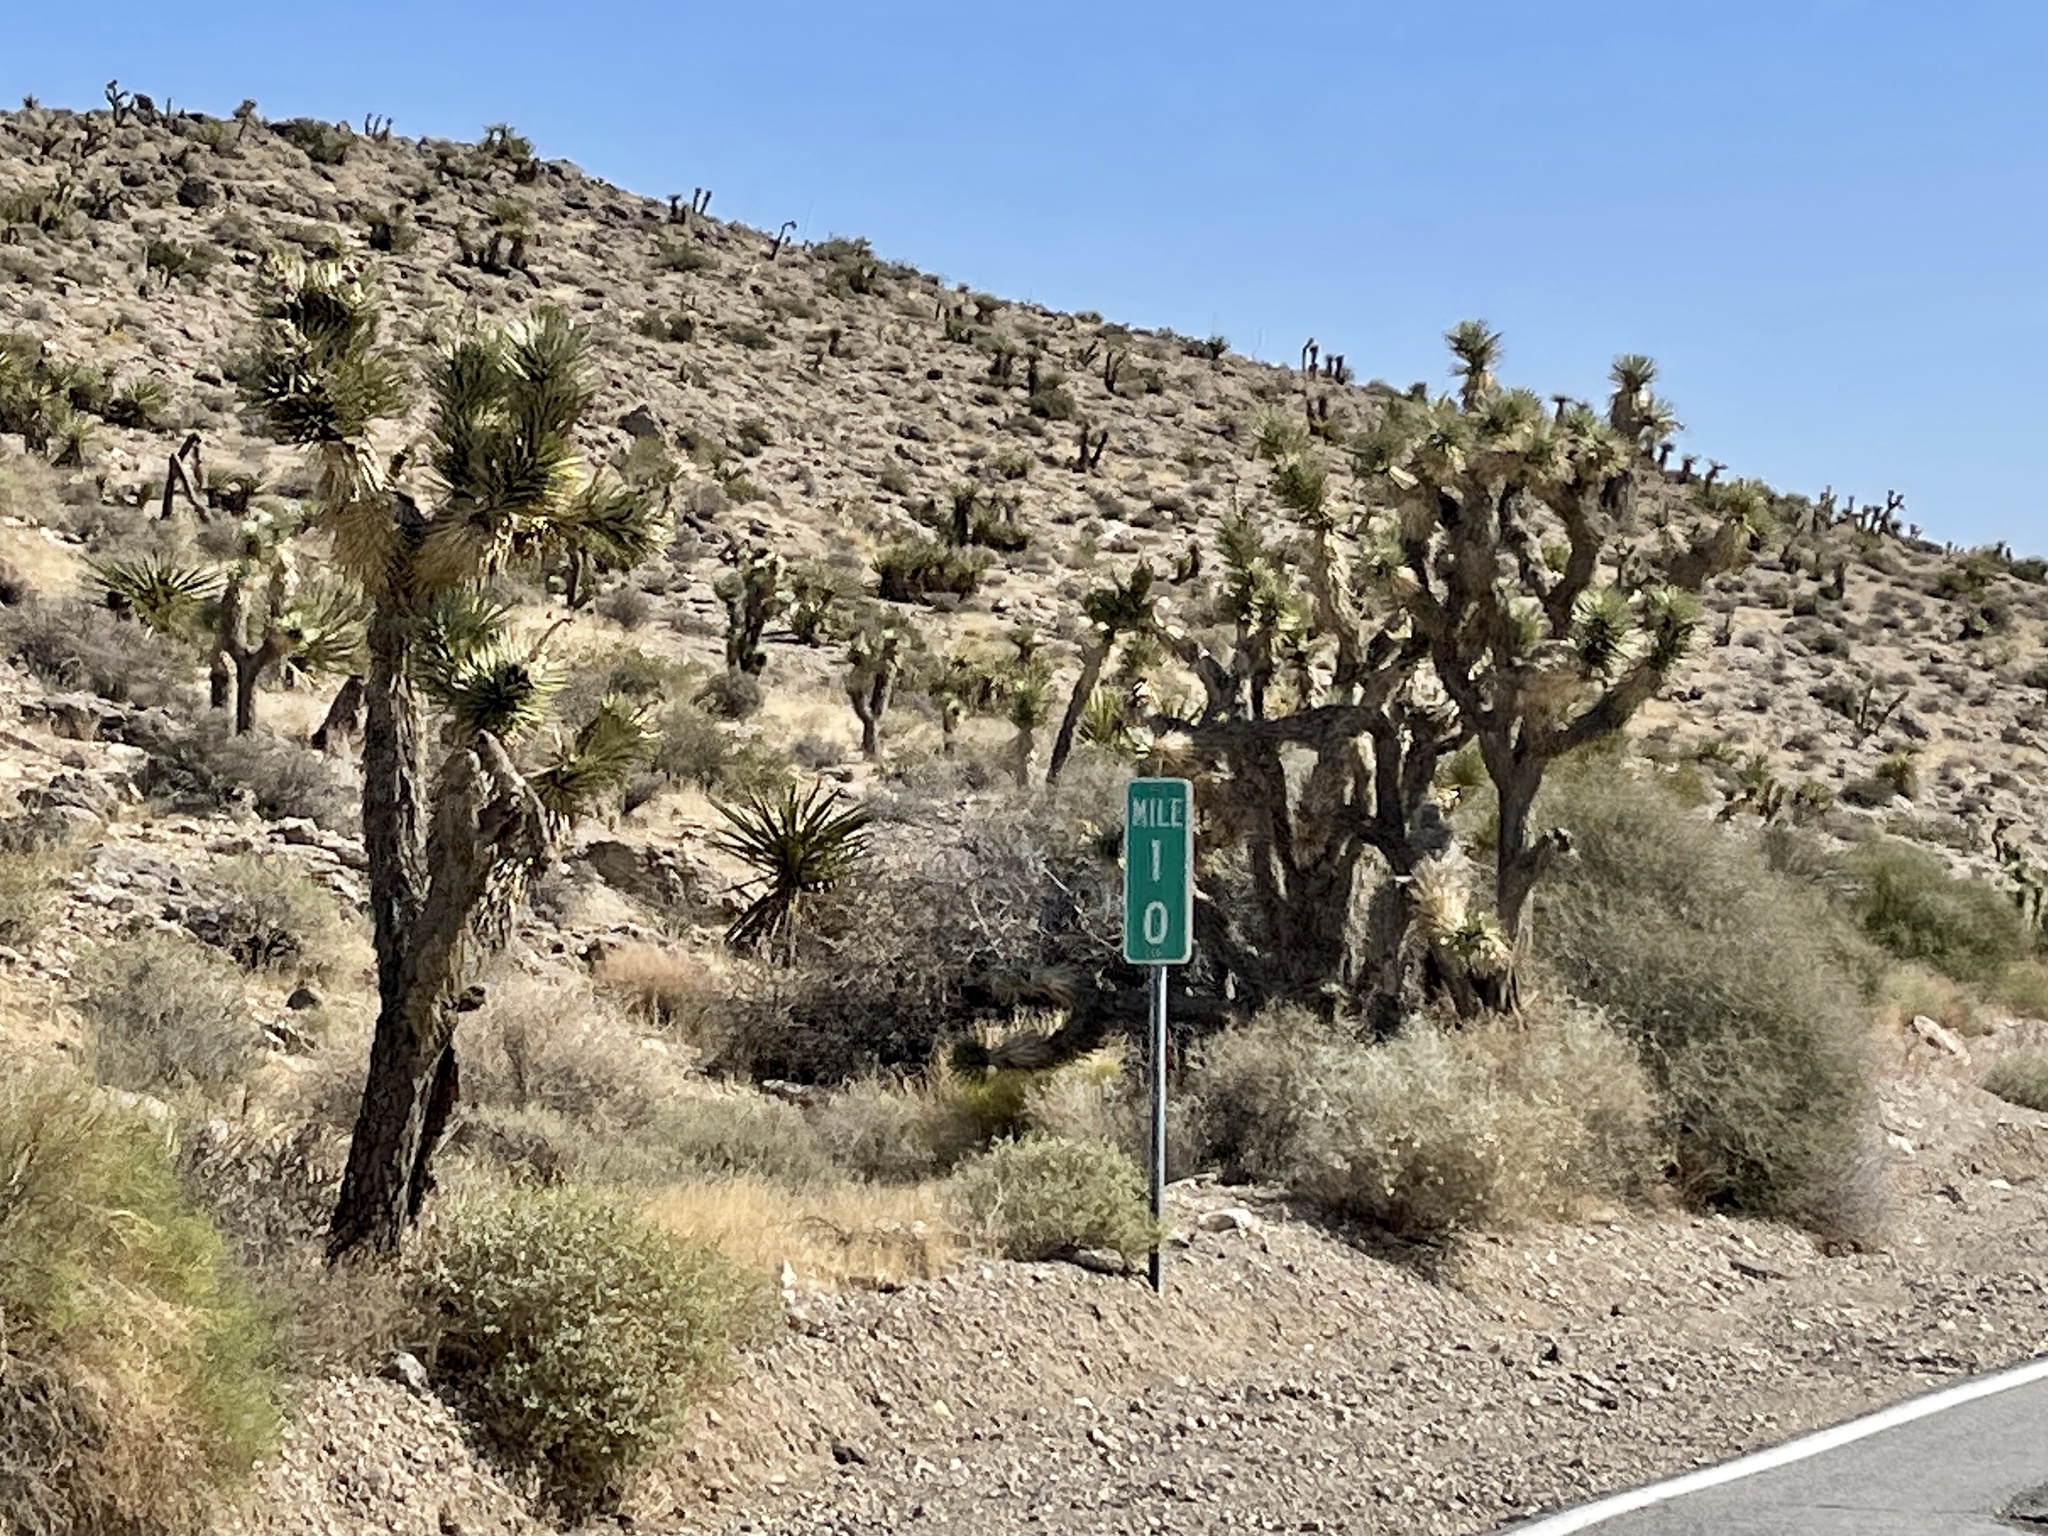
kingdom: Plantae
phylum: Tracheophyta
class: Liliopsida
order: Asparagales
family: Asparagaceae
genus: Yucca
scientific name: Yucca brevifolia
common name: Joshua tree
